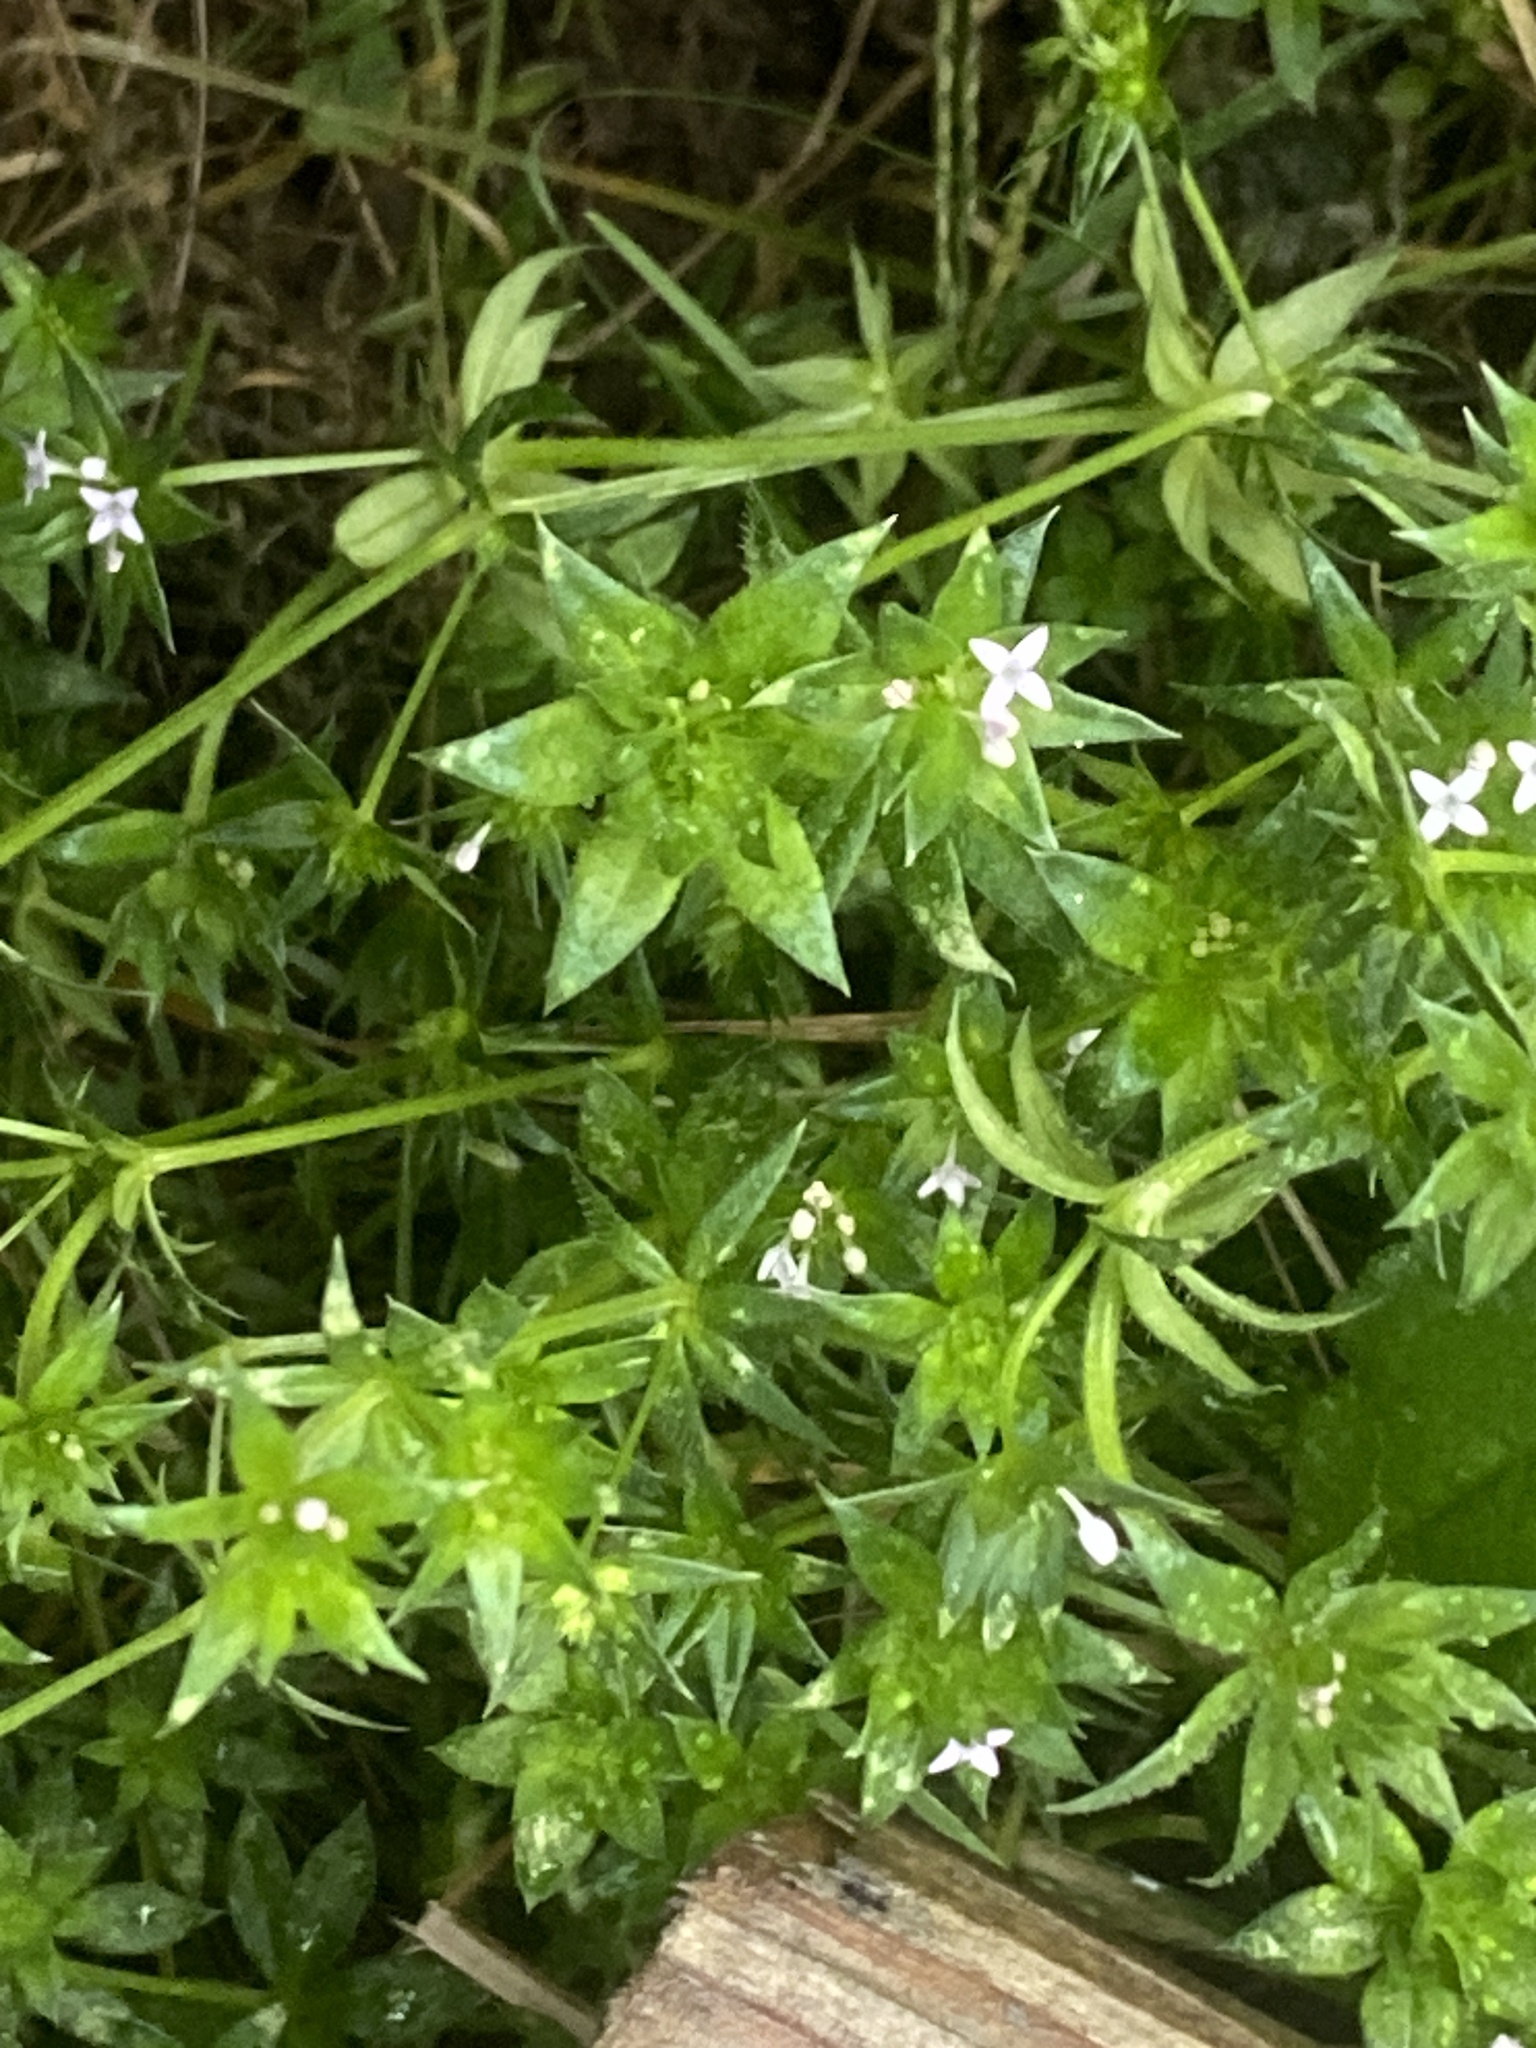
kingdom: Plantae
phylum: Tracheophyta
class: Magnoliopsida
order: Gentianales
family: Rubiaceae
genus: Sherardia
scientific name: Sherardia arvensis
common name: Field madder
